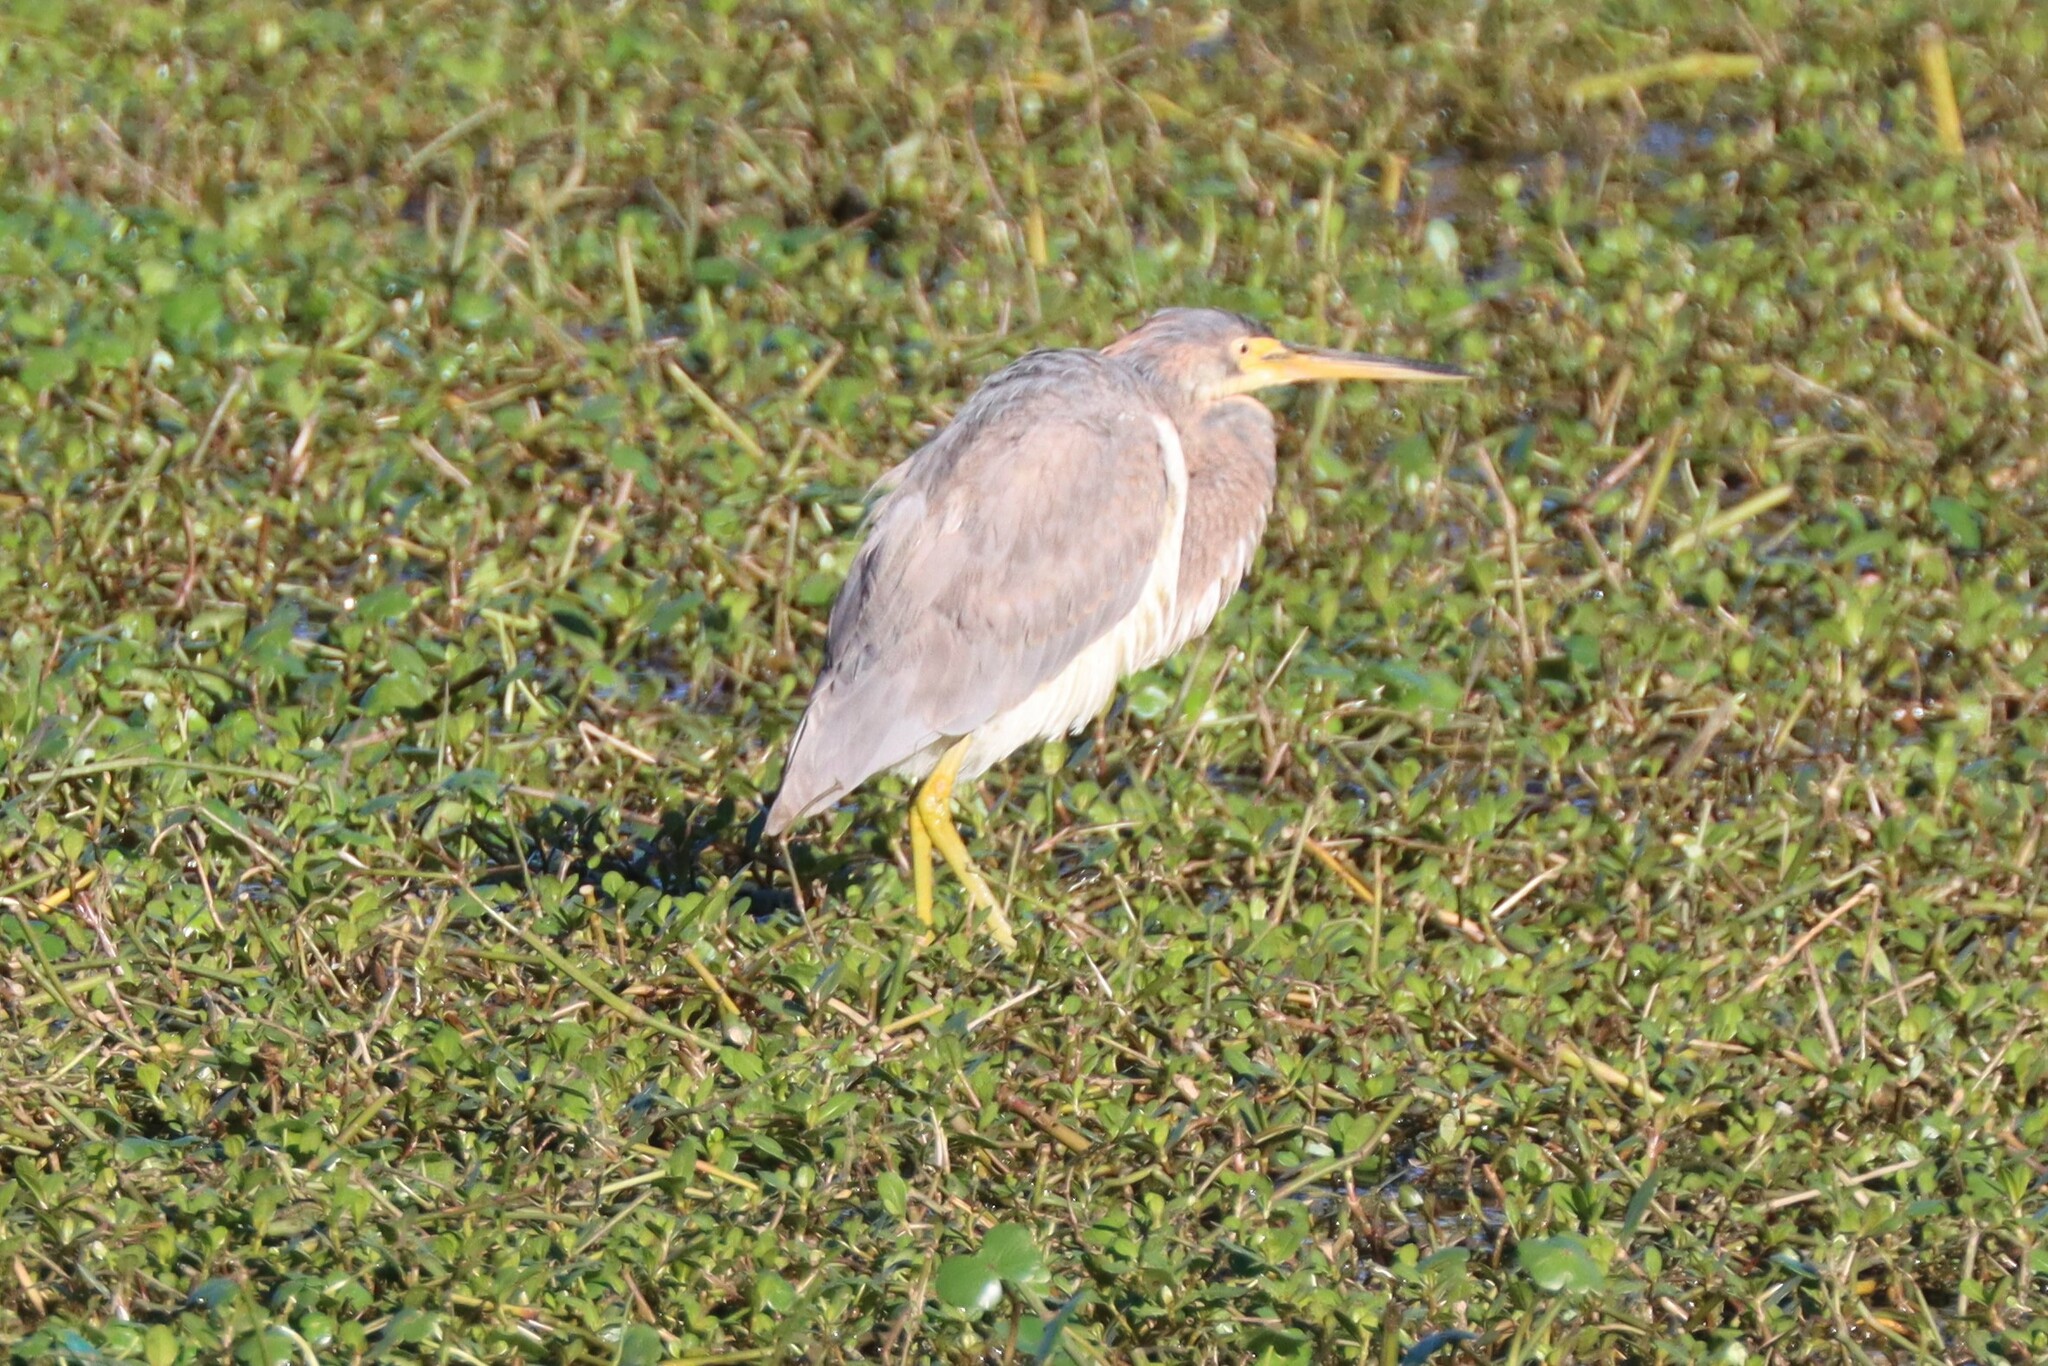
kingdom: Animalia
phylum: Chordata
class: Aves
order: Pelecaniformes
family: Ardeidae
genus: Egretta
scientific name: Egretta tricolor
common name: Tricolored heron
